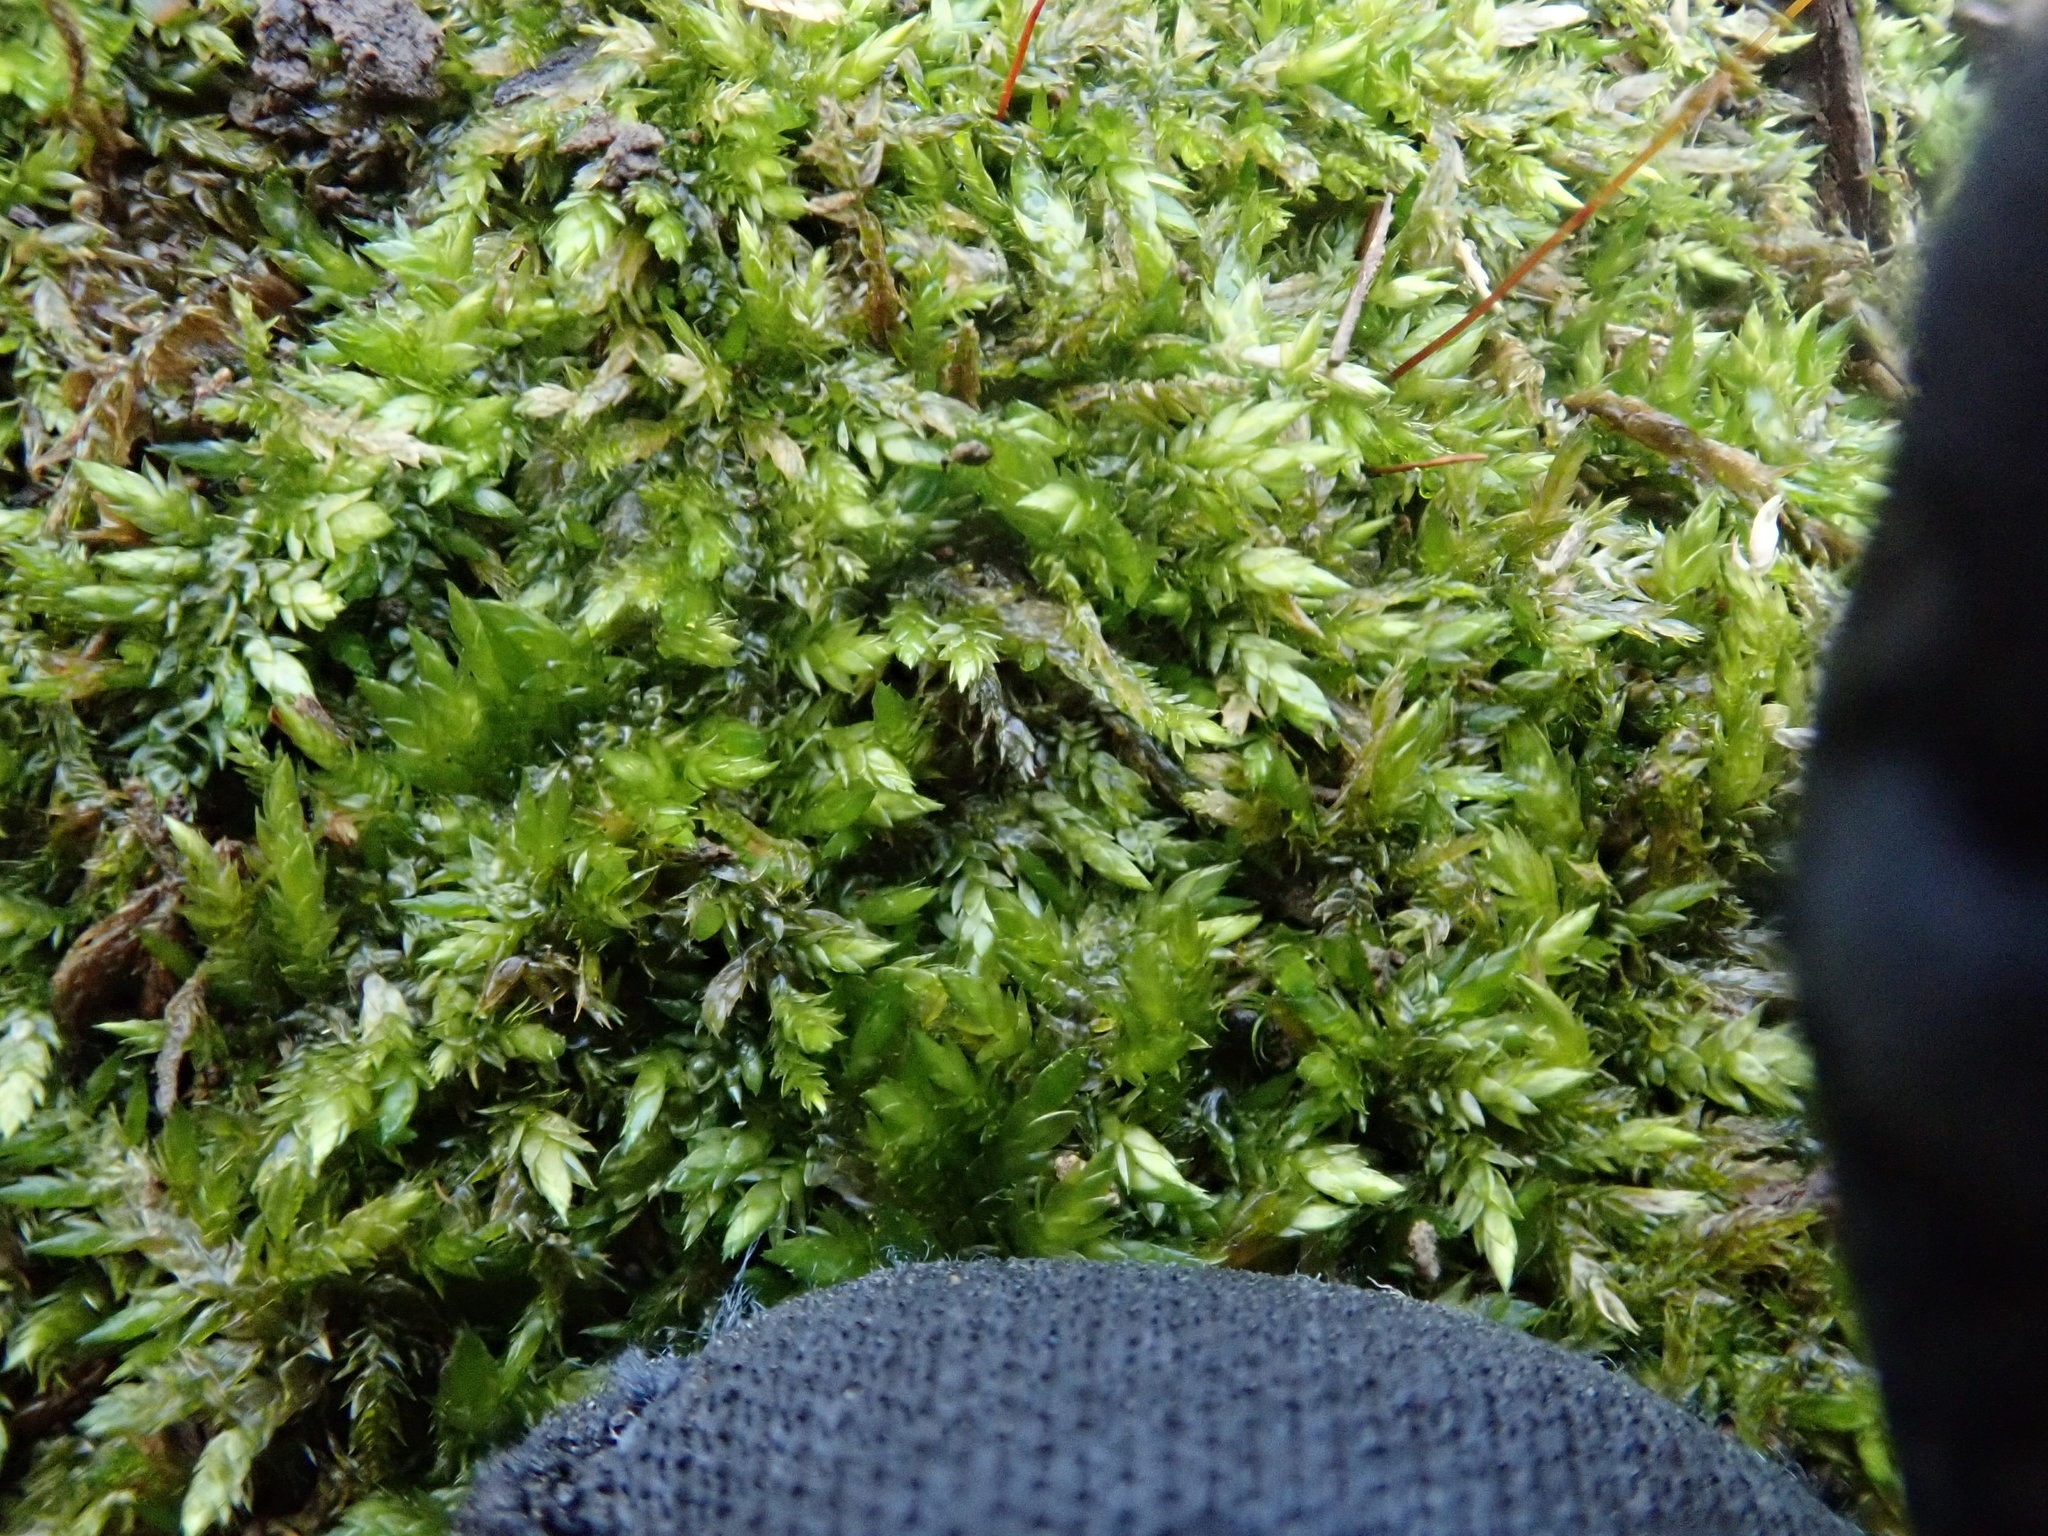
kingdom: Plantae
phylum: Bryophyta
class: Bryopsida
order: Hypnales
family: Entodontaceae
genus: Entodon
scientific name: Entodon seductrix
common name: Round-stemmed entodon moss
